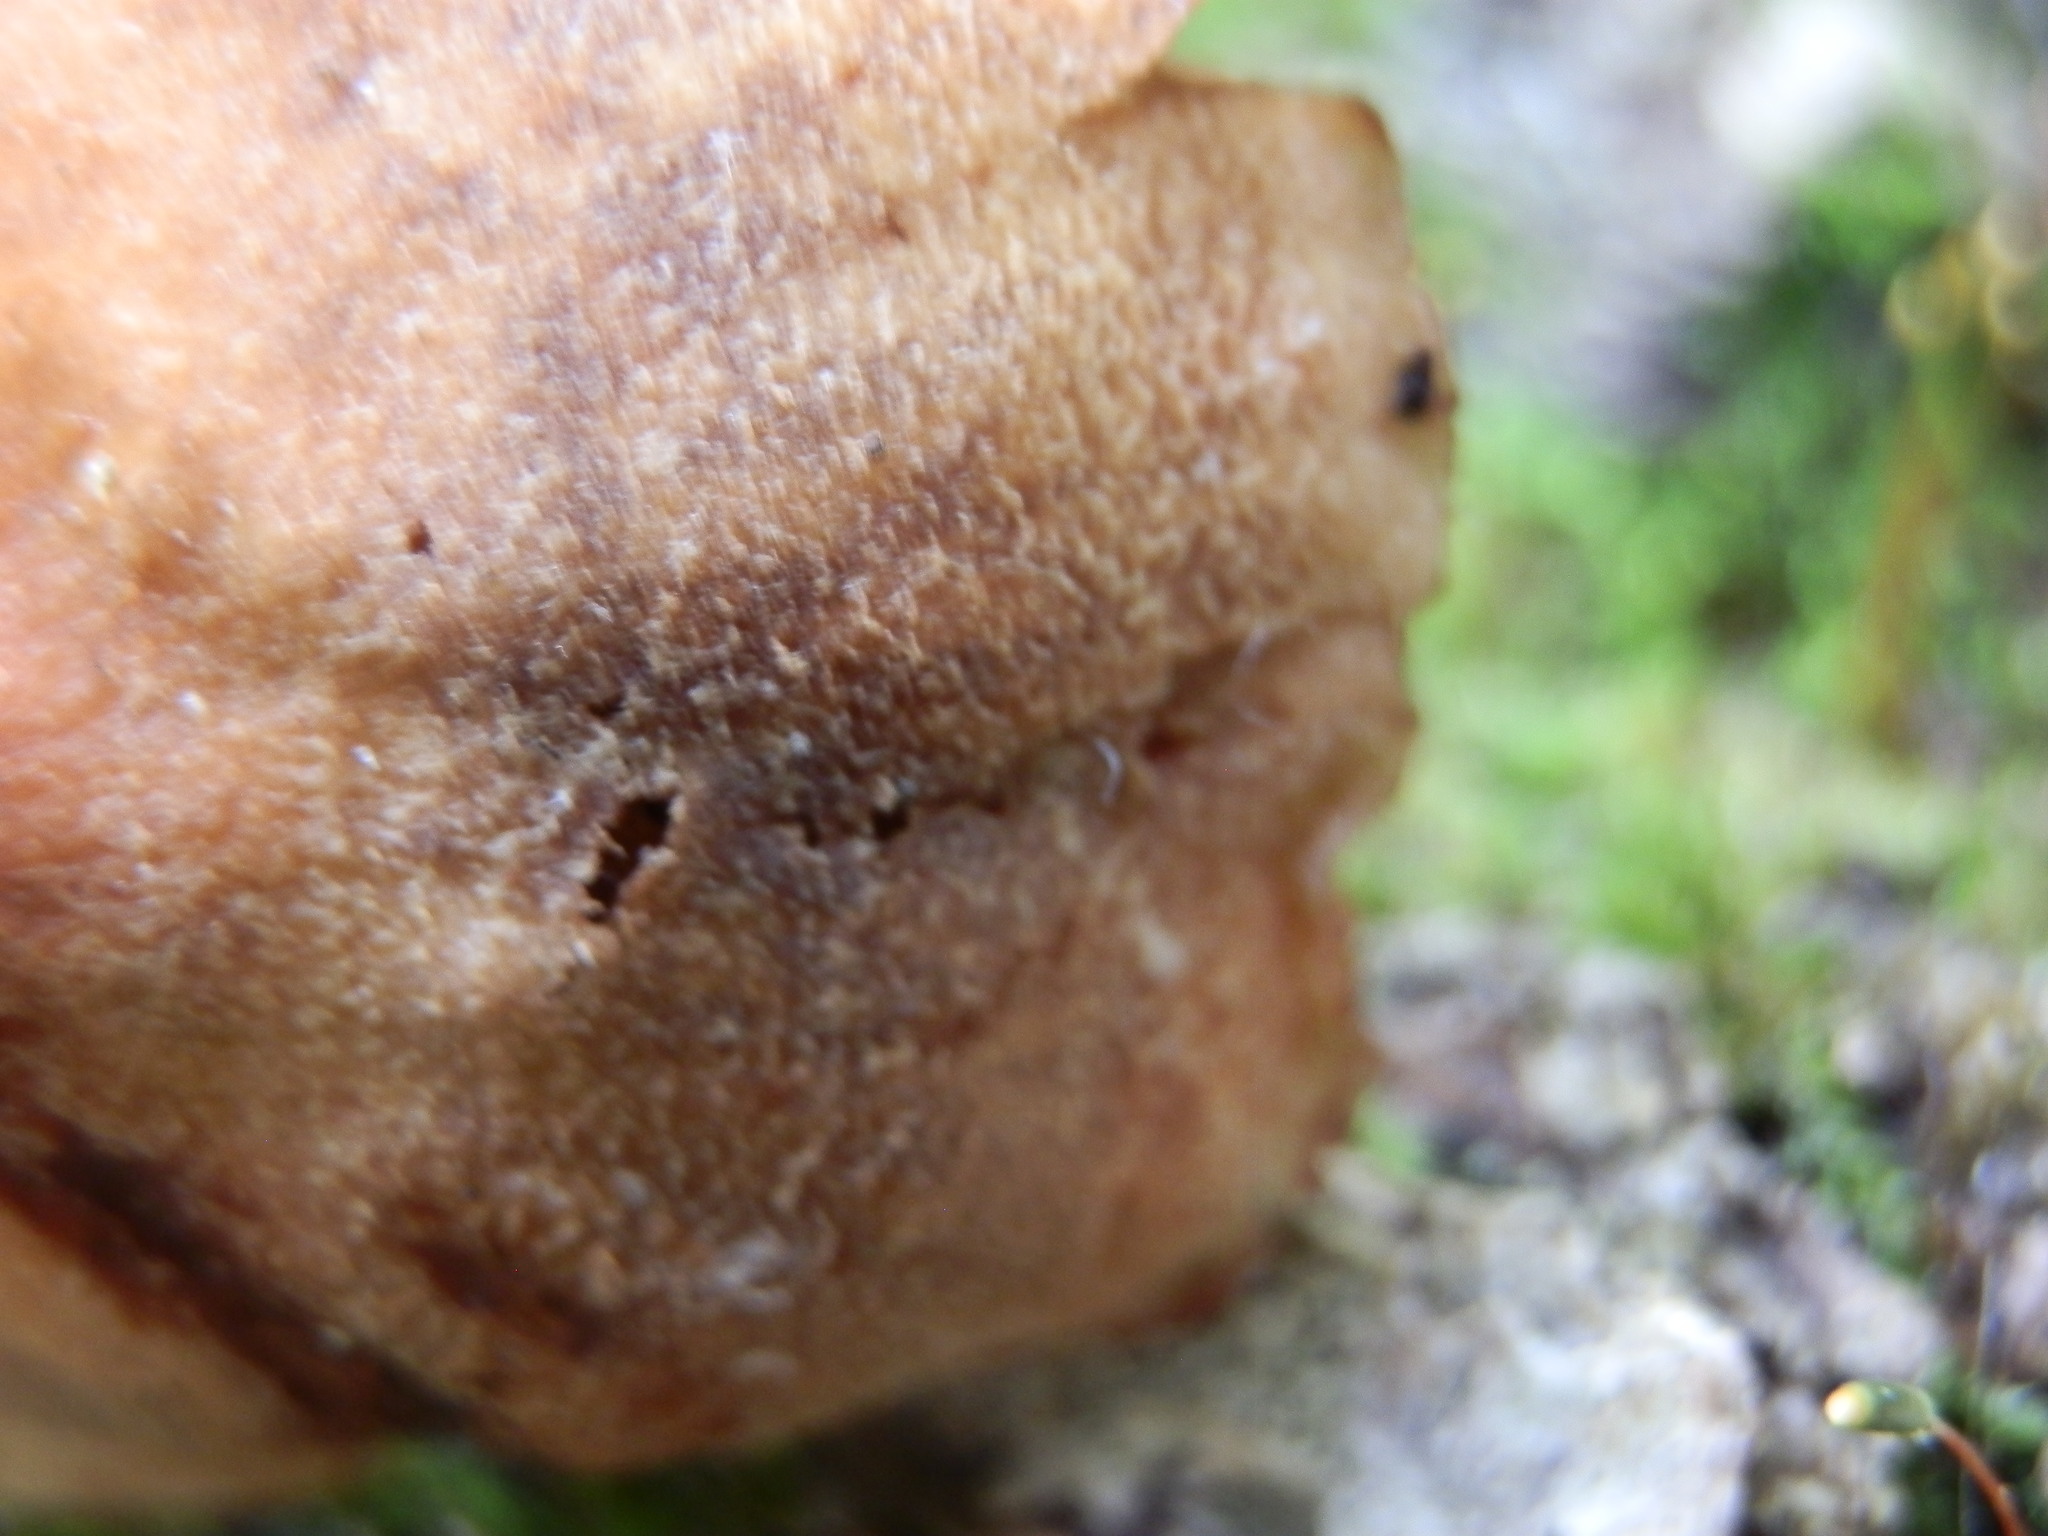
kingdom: Fungi
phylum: Basidiomycota
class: Agaricomycetes
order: Agaricales
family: Cortinariaceae
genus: Cortinarius
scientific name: Cortinarius
